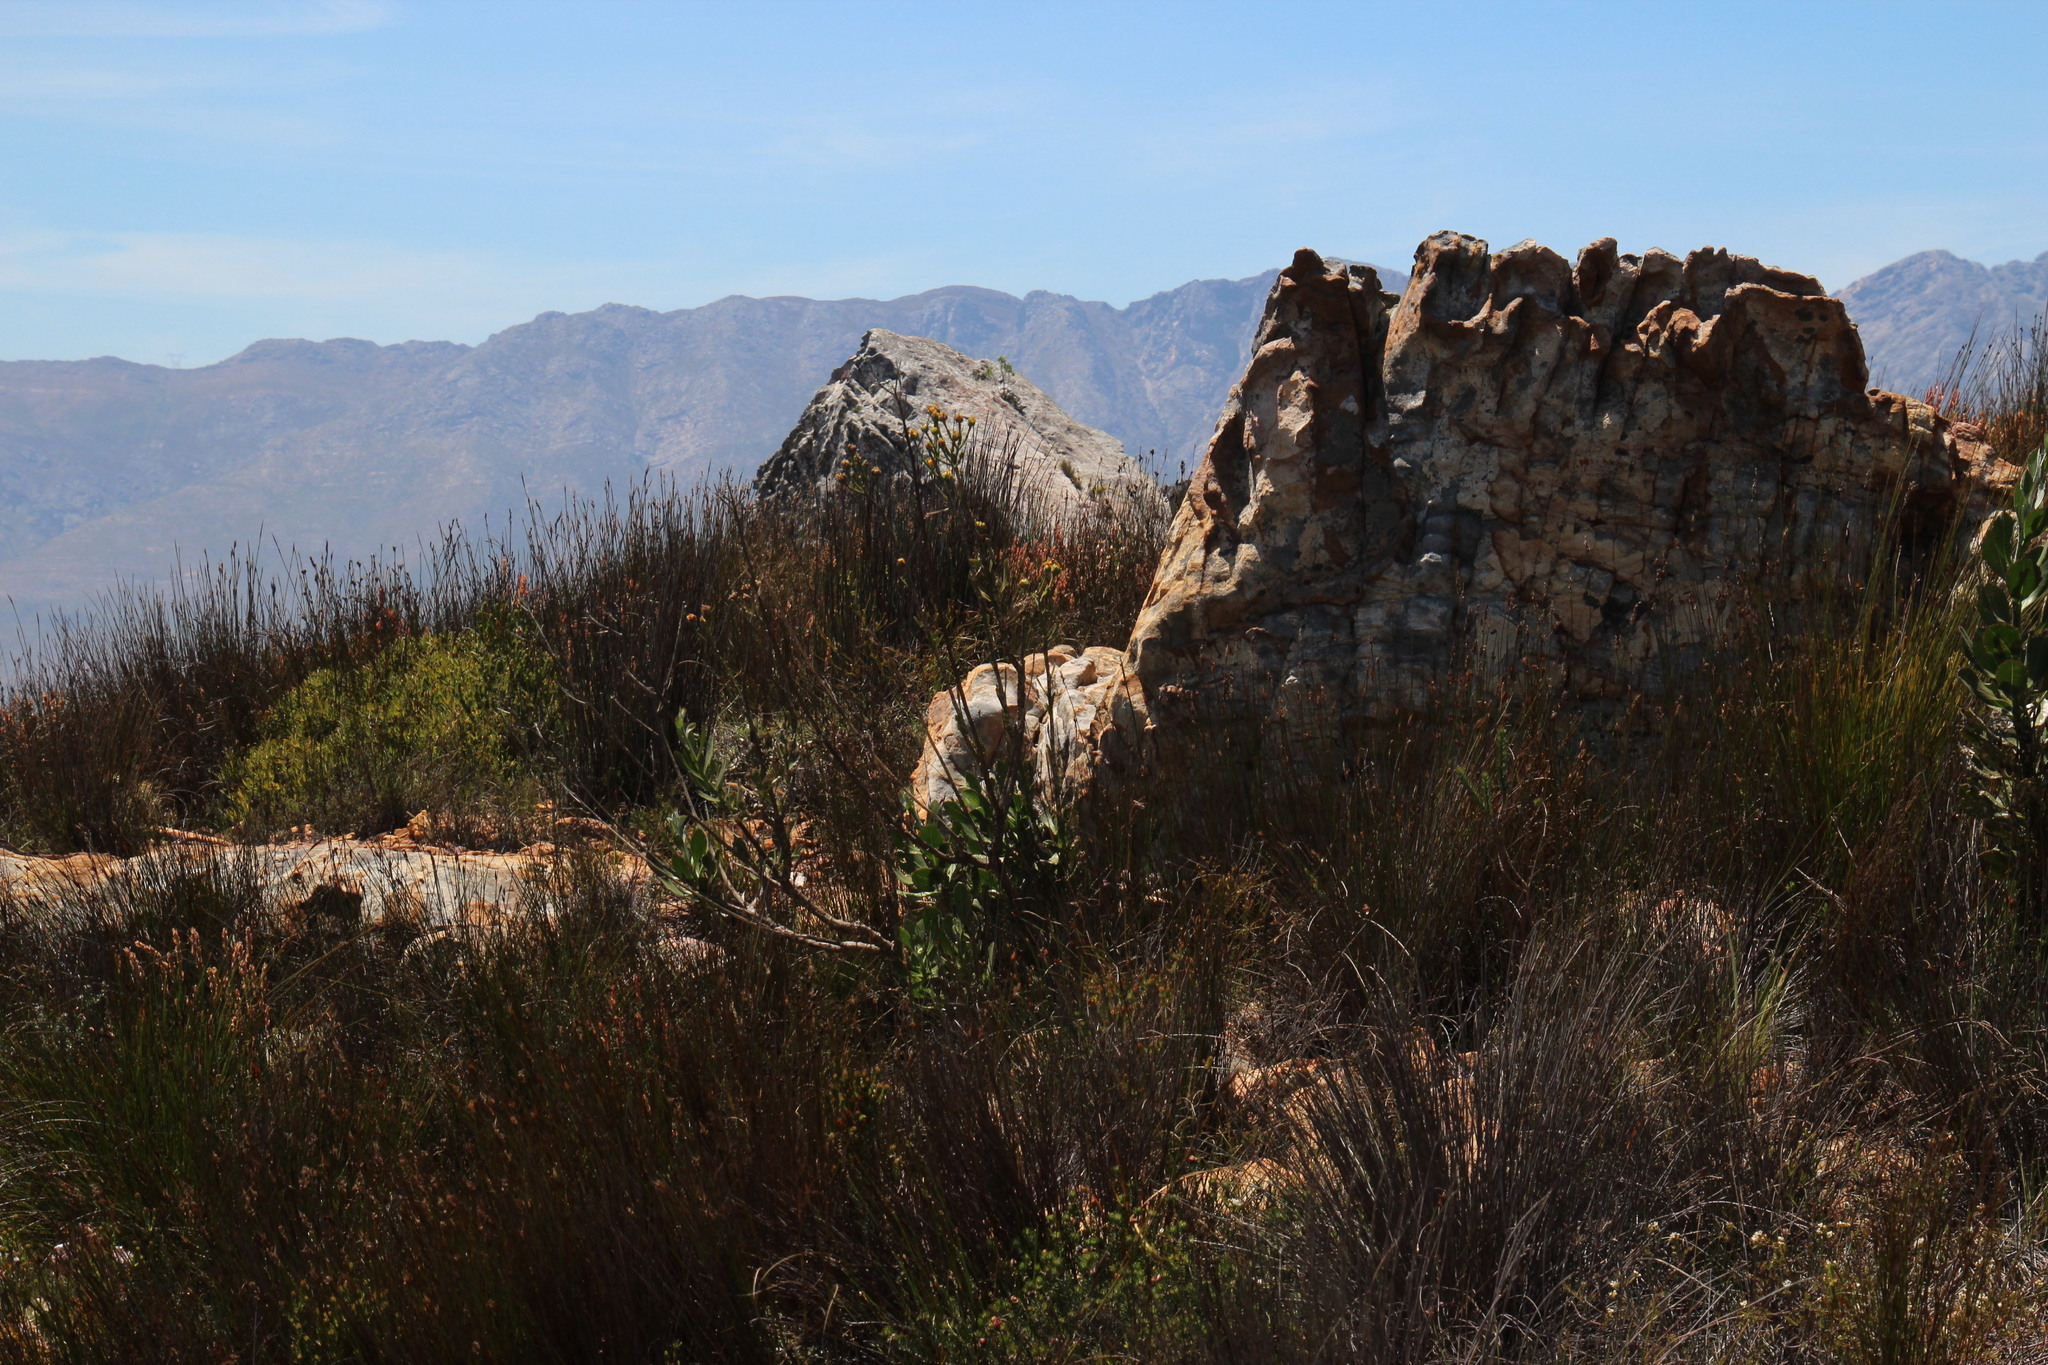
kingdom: Plantae
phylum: Tracheophyta
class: Magnoliopsida
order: Asterales
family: Asteraceae
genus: Osteospermum
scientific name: Osteospermum junceum
